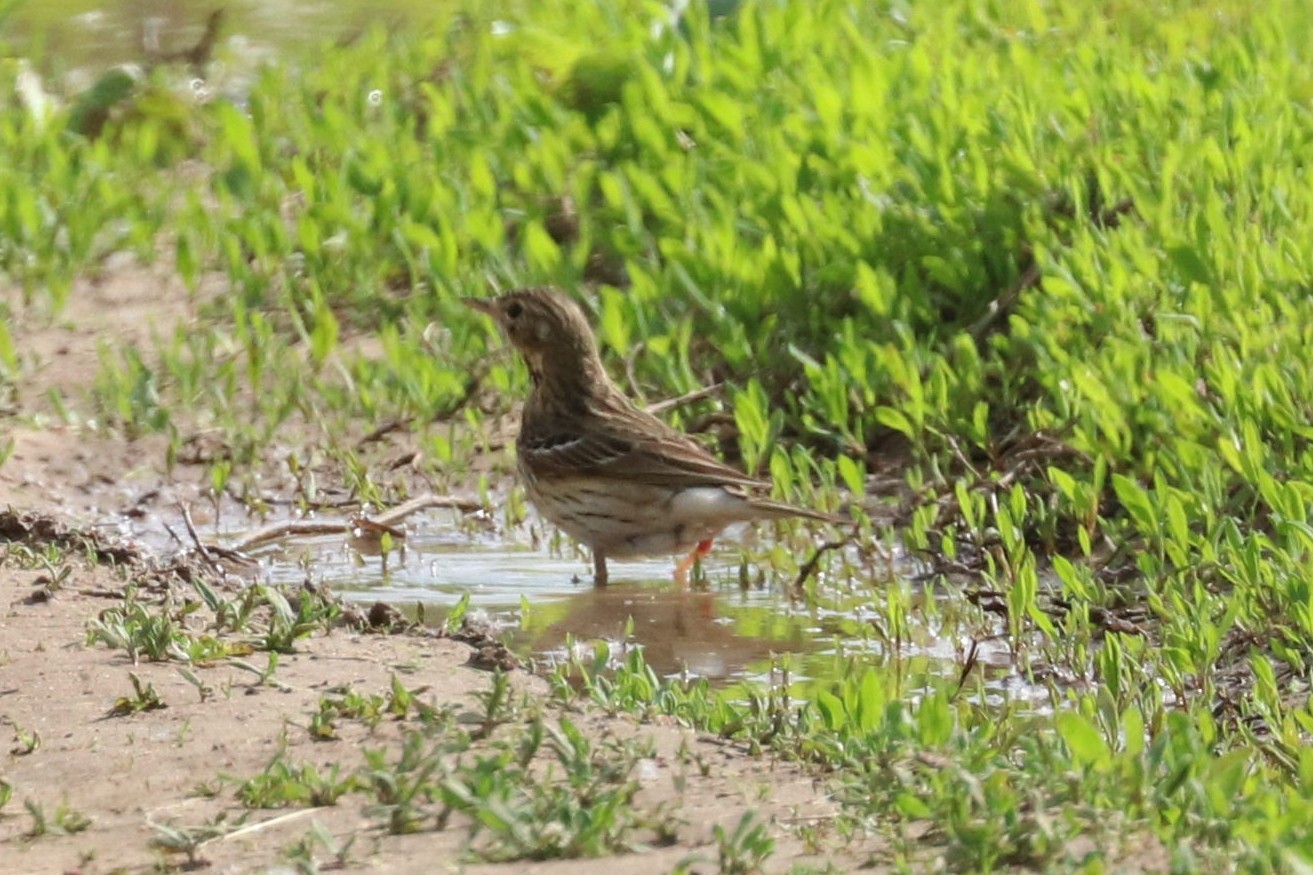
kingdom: Animalia
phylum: Chordata
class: Aves
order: Passeriformes
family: Motacillidae
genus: Anthus
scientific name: Anthus trivialis
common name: Tree pipit
